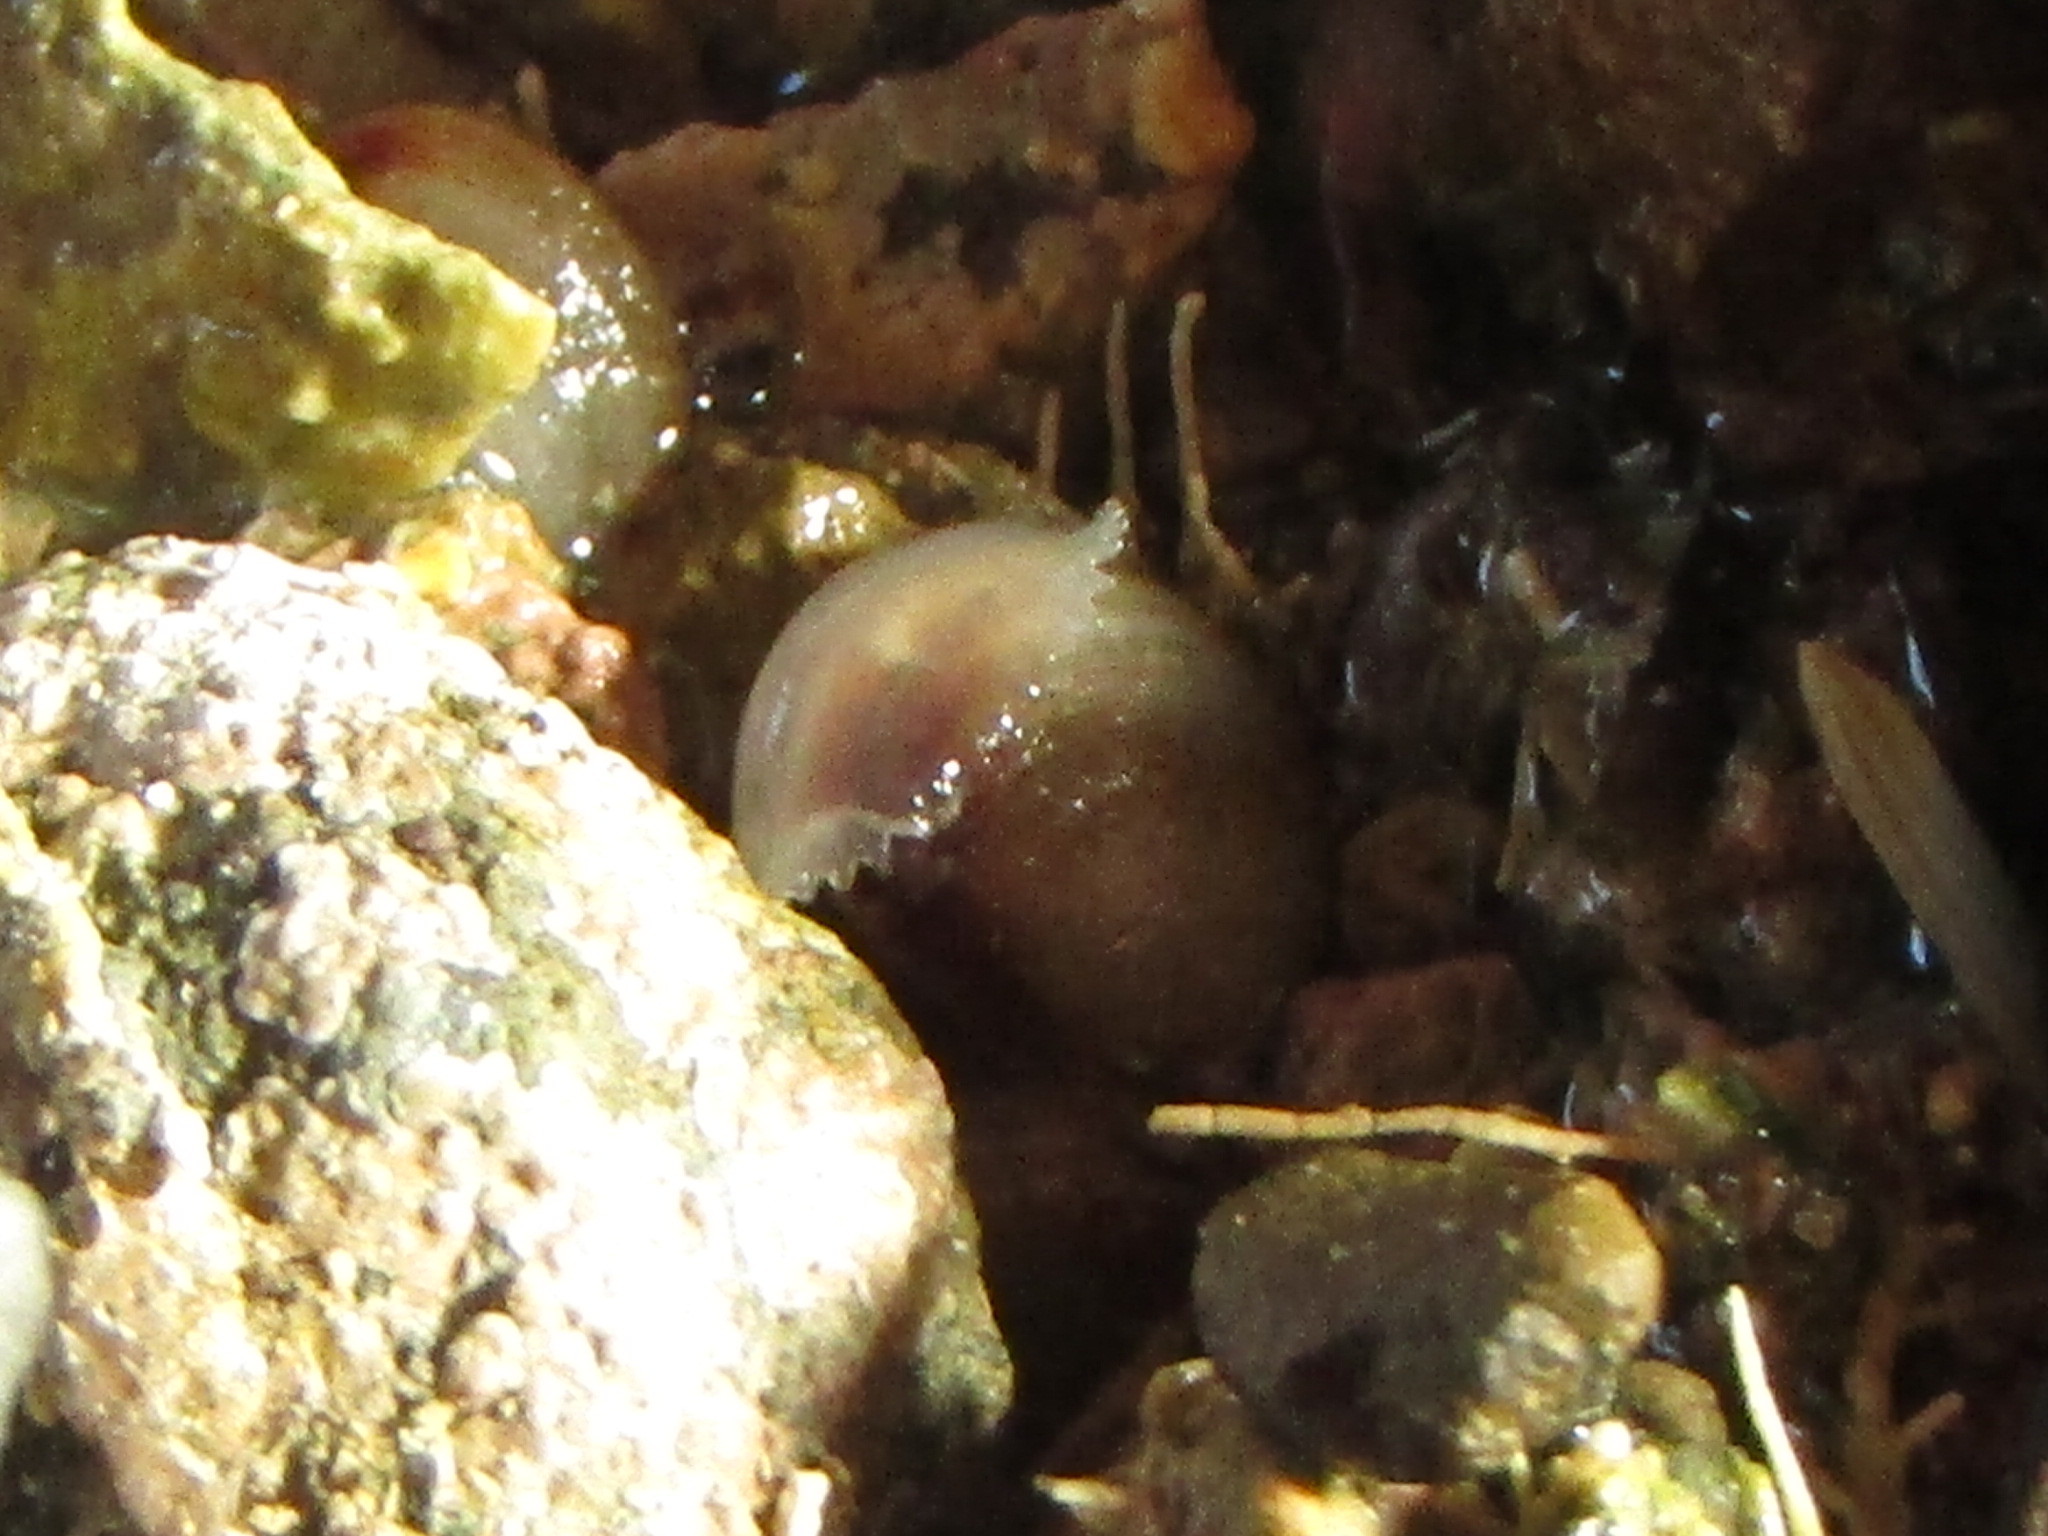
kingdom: Animalia
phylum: Mollusca
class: Bivalvia
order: Nuculida
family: Nuculidae
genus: Linucula
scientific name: Linucula hartvigiana
